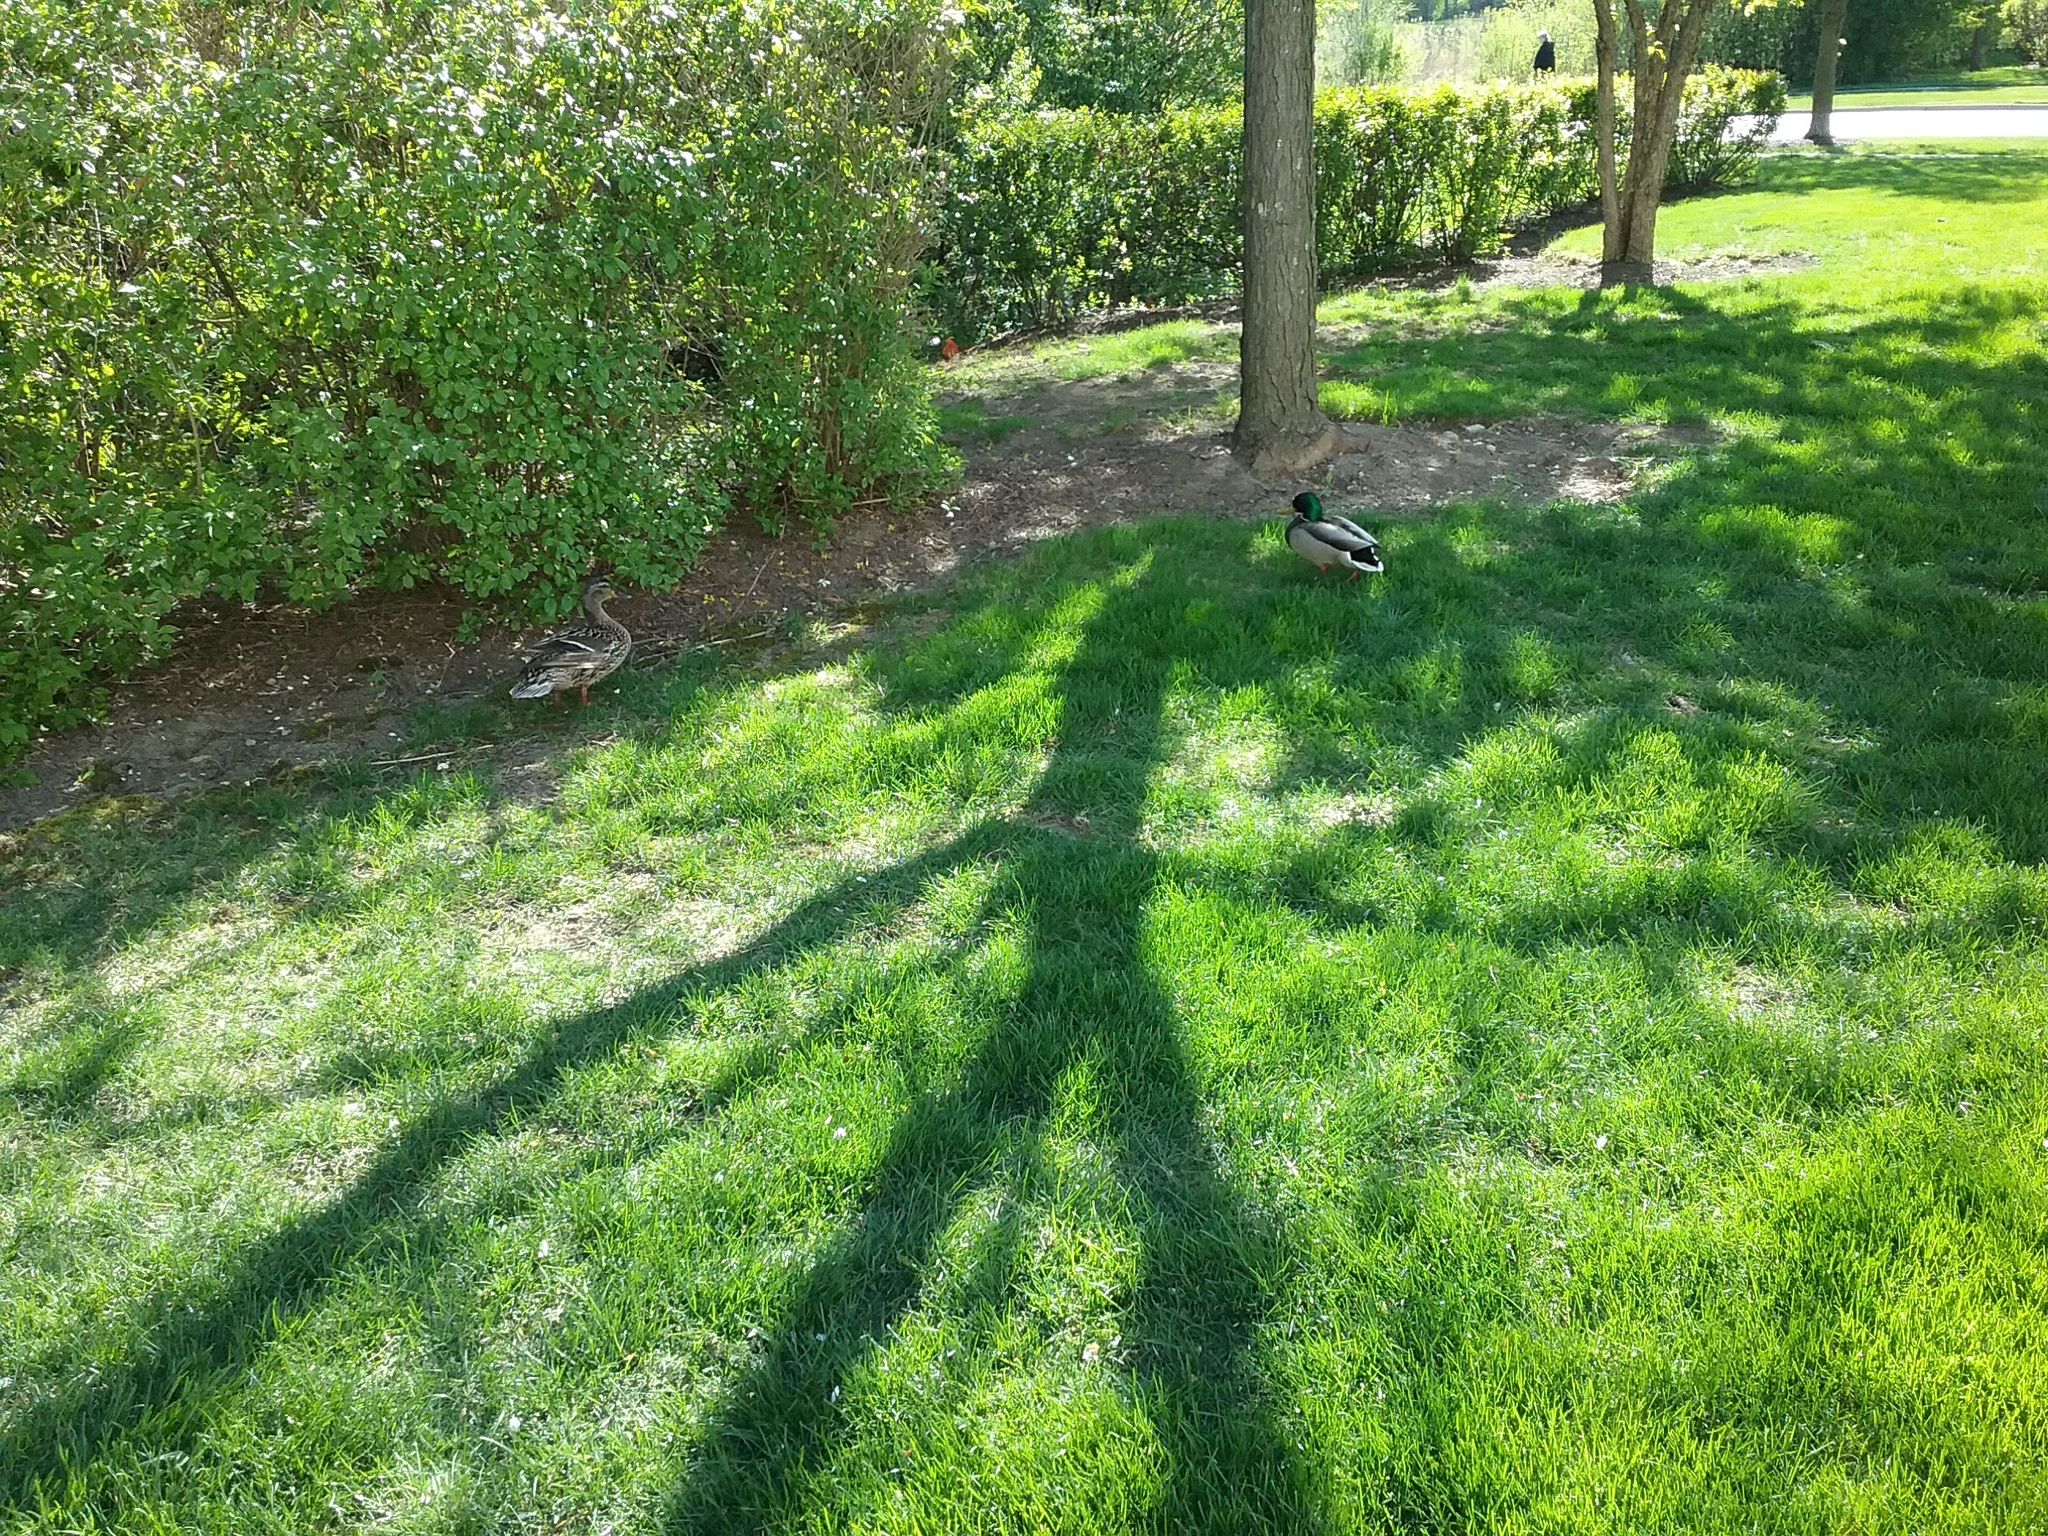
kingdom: Animalia
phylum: Chordata
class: Aves
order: Anseriformes
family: Anatidae
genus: Anas
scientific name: Anas platyrhynchos
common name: Mallard
